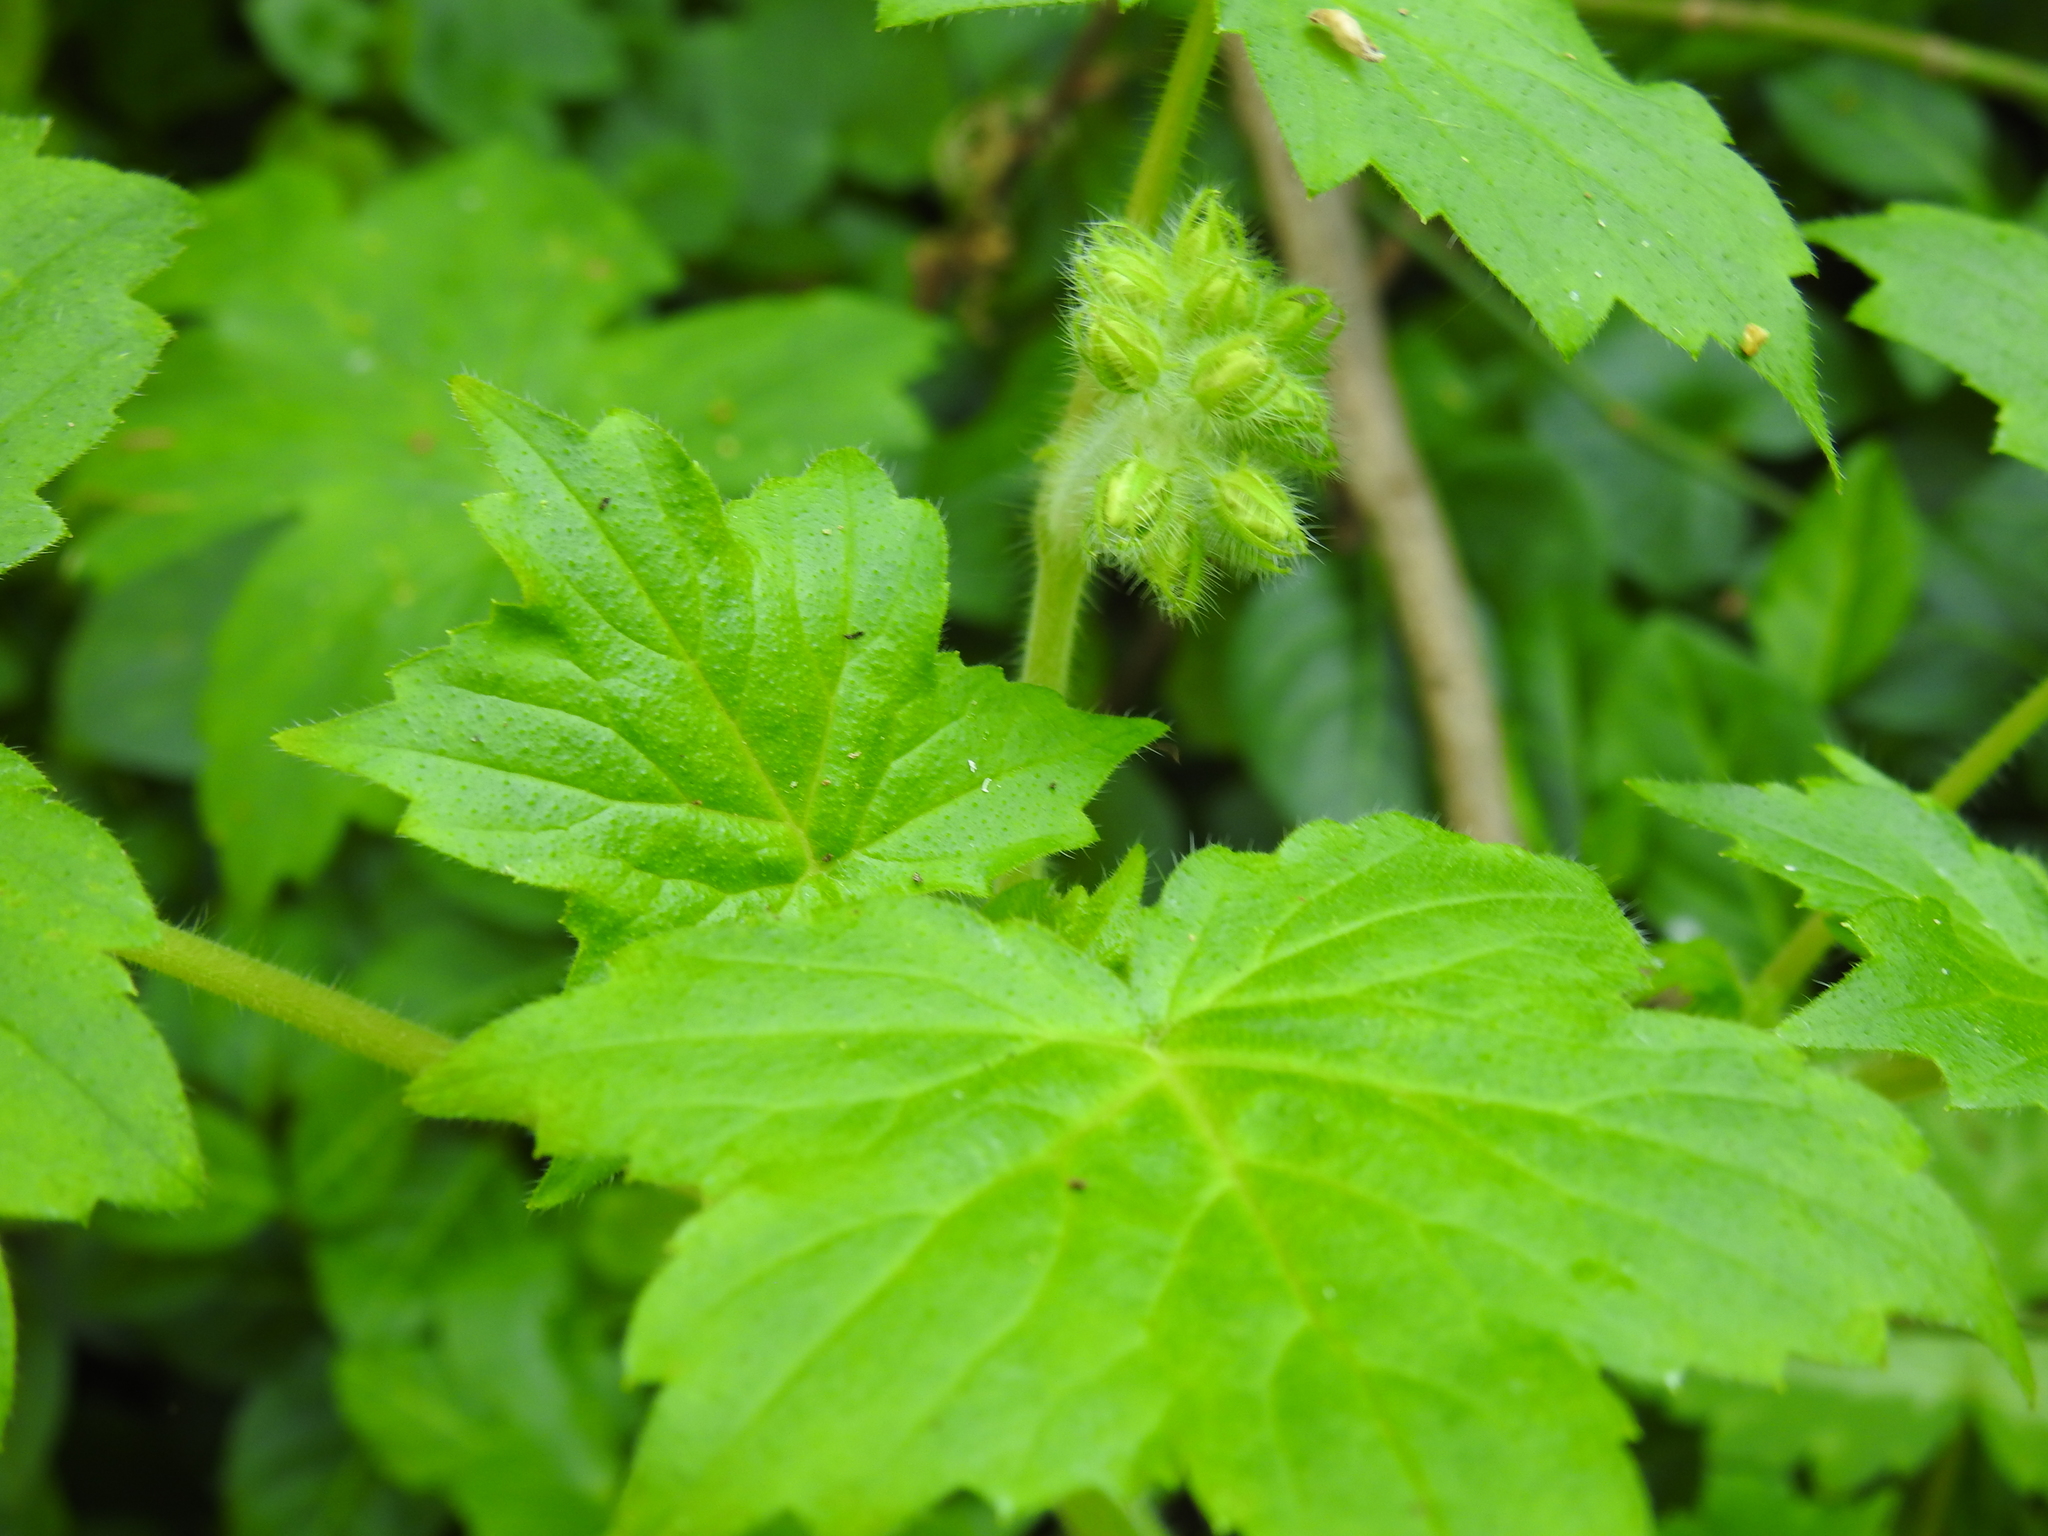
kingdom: Plantae
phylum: Tracheophyta
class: Magnoliopsida
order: Boraginales
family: Hydrophyllaceae
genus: Hydrophyllum
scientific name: Hydrophyllum appendiculatum
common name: Appendaged waterleaf
